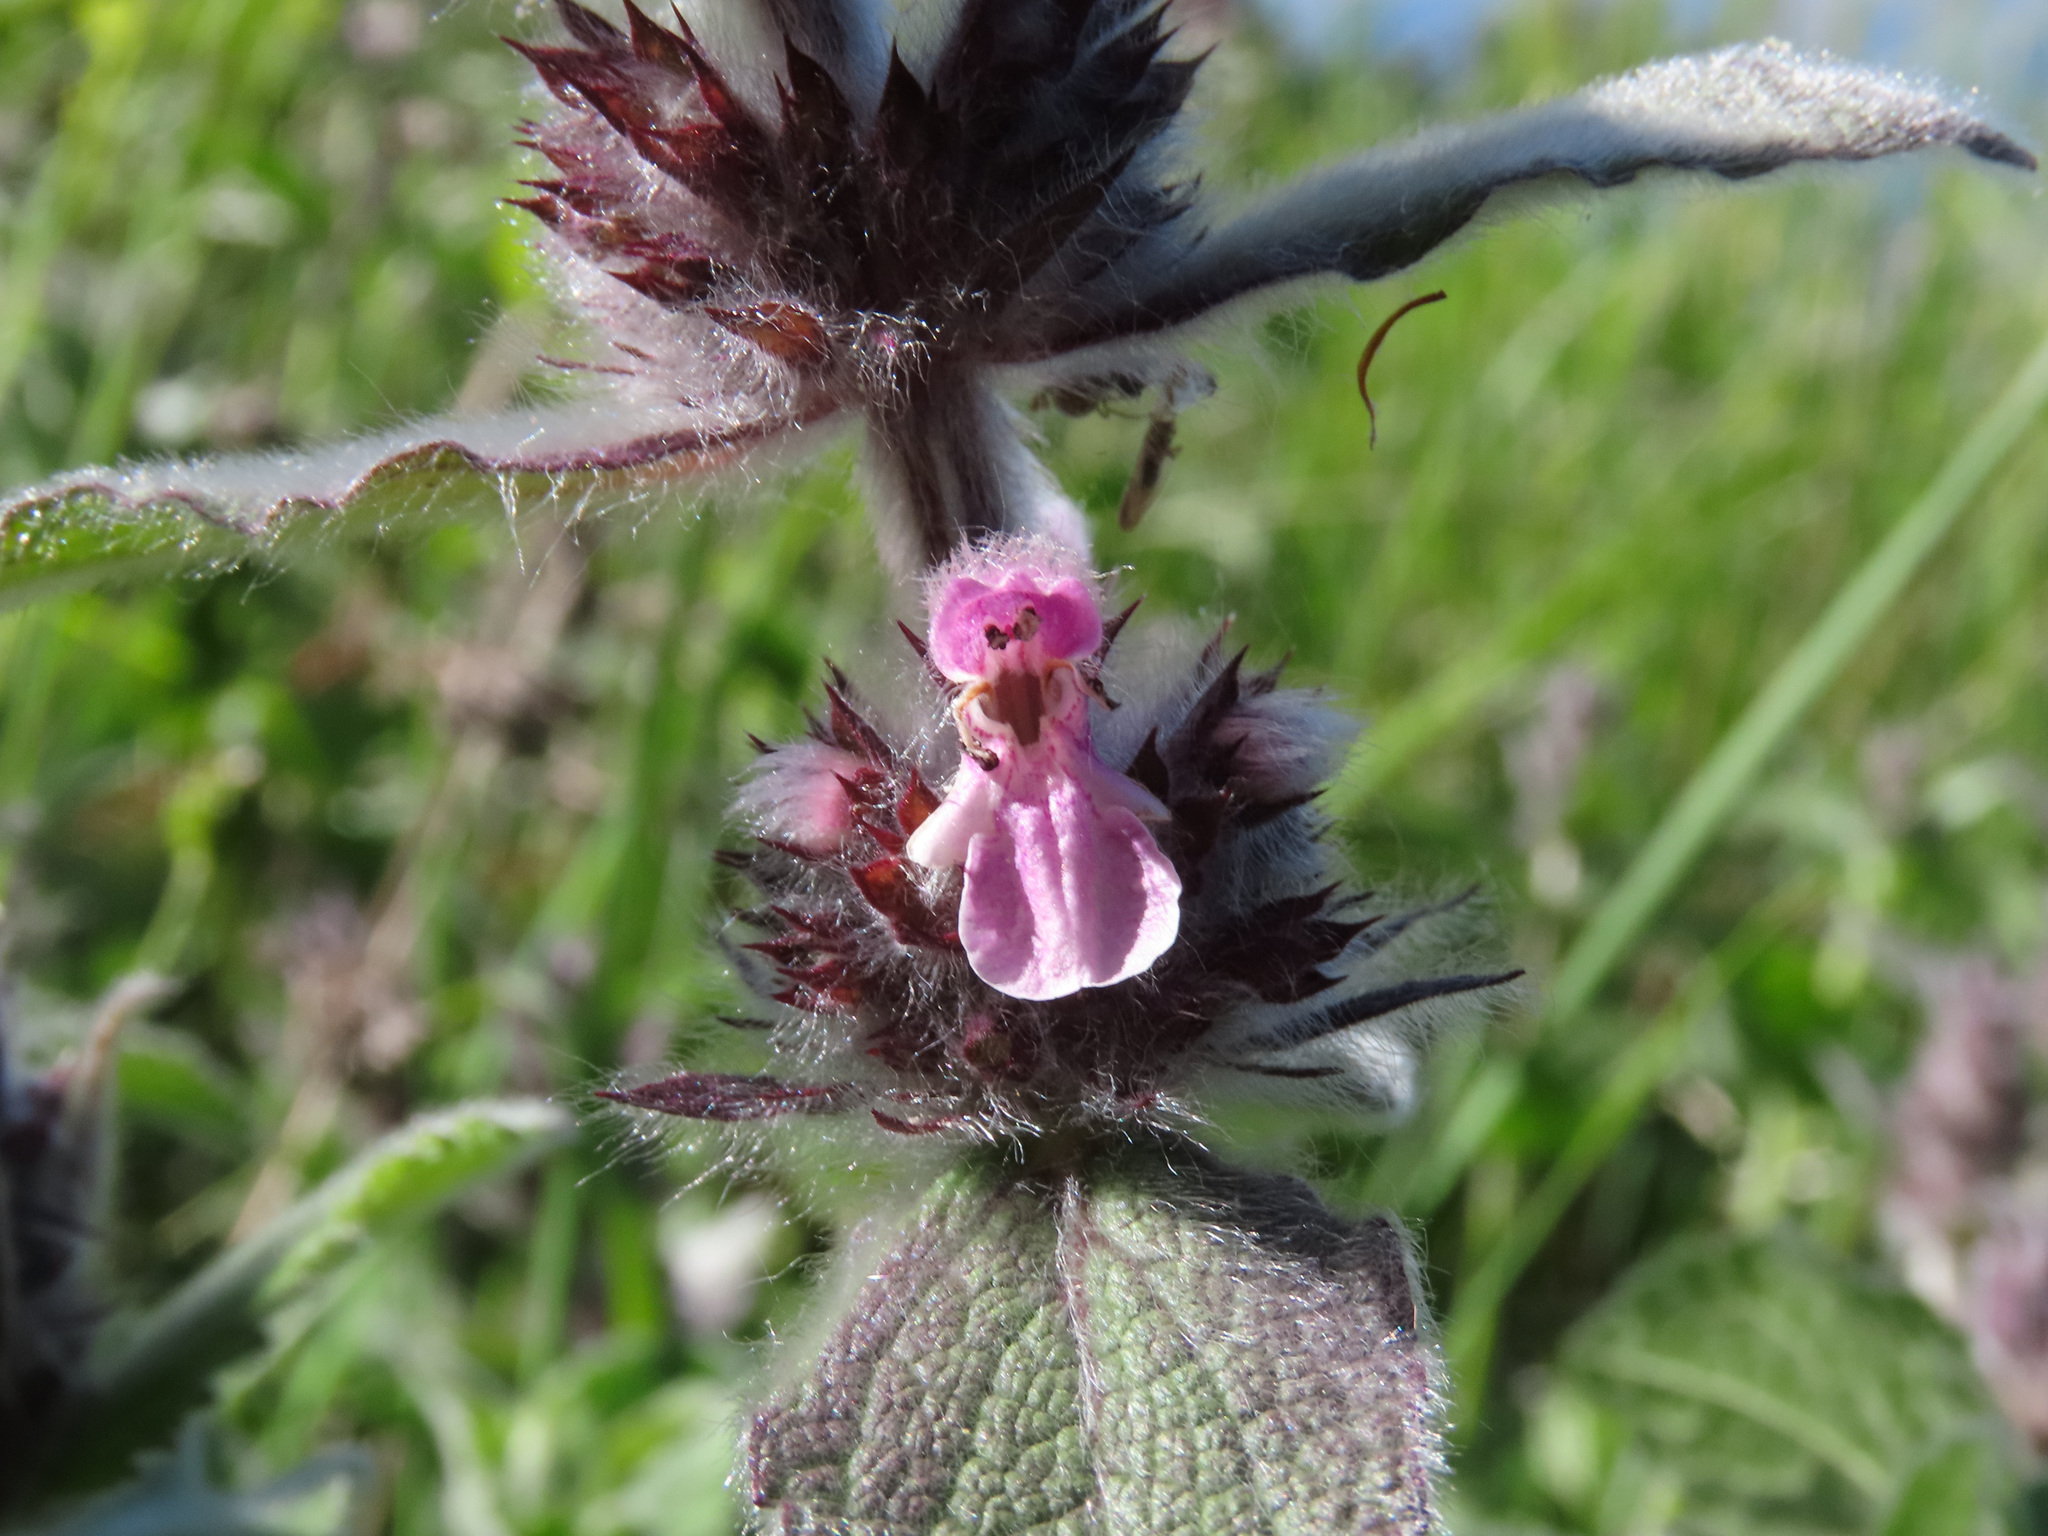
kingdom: Plantae
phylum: Tracheophyta
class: Magnoliopsida
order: Lamiales
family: Lamiaceae
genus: Stachys
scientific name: Stachys germanica
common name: Downy woundwort
